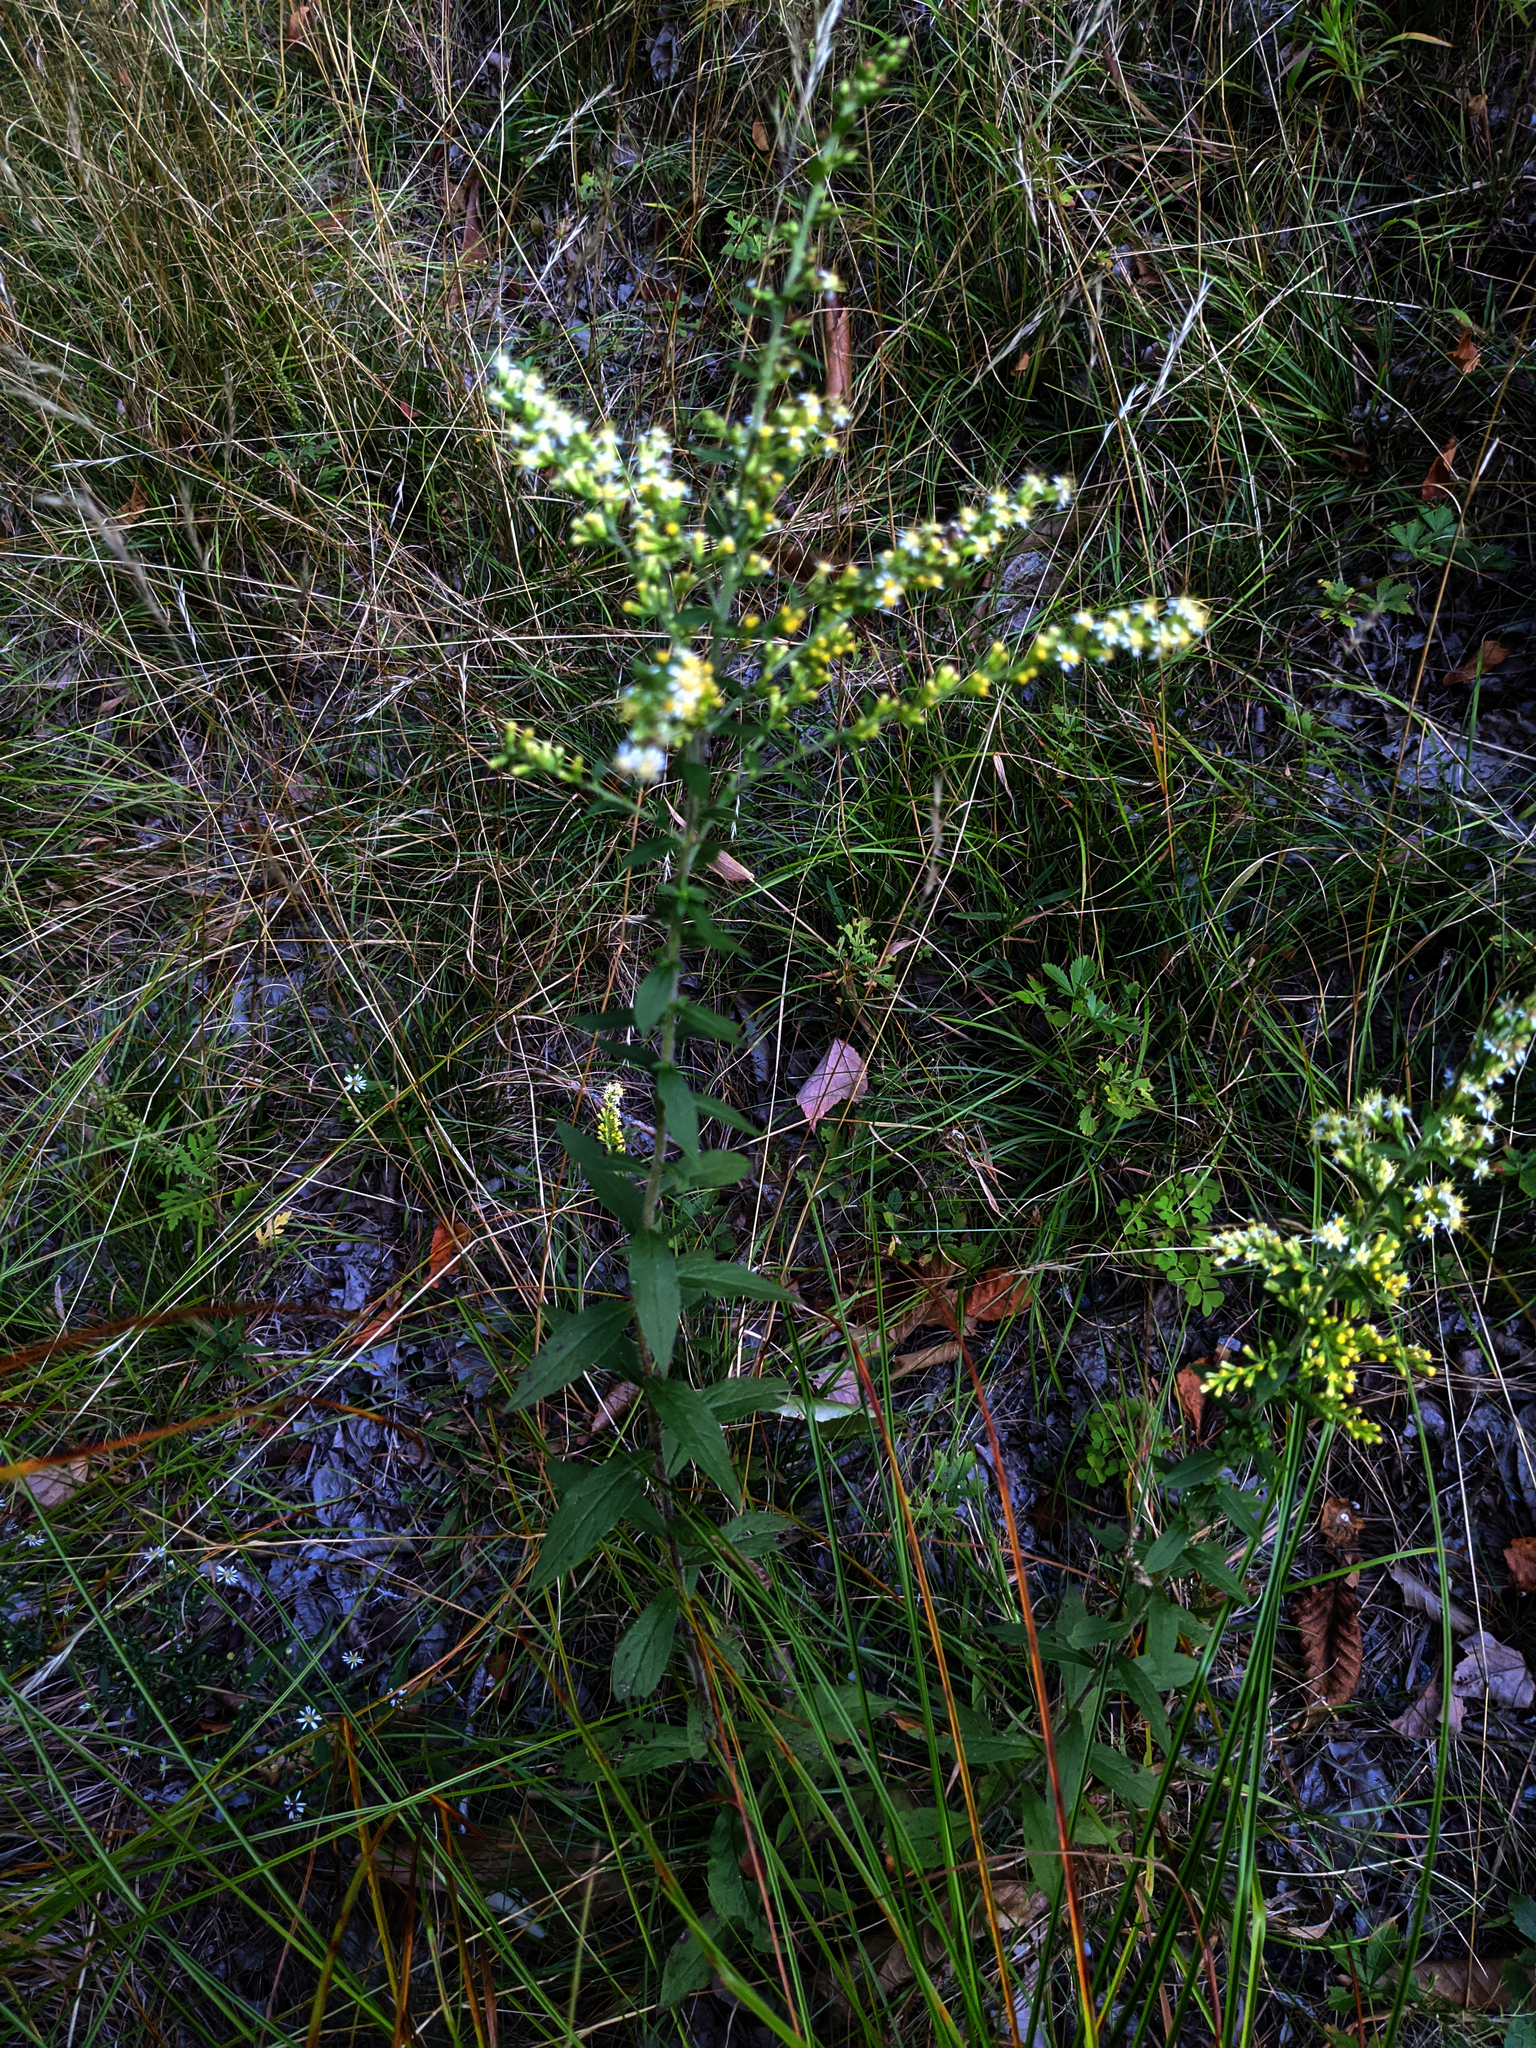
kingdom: Plantae
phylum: Tracheophyta
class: Magnoliopsida
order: Asterales
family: Asteraceae
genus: Solidago
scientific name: Solidago bicolor
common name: Silverrod
